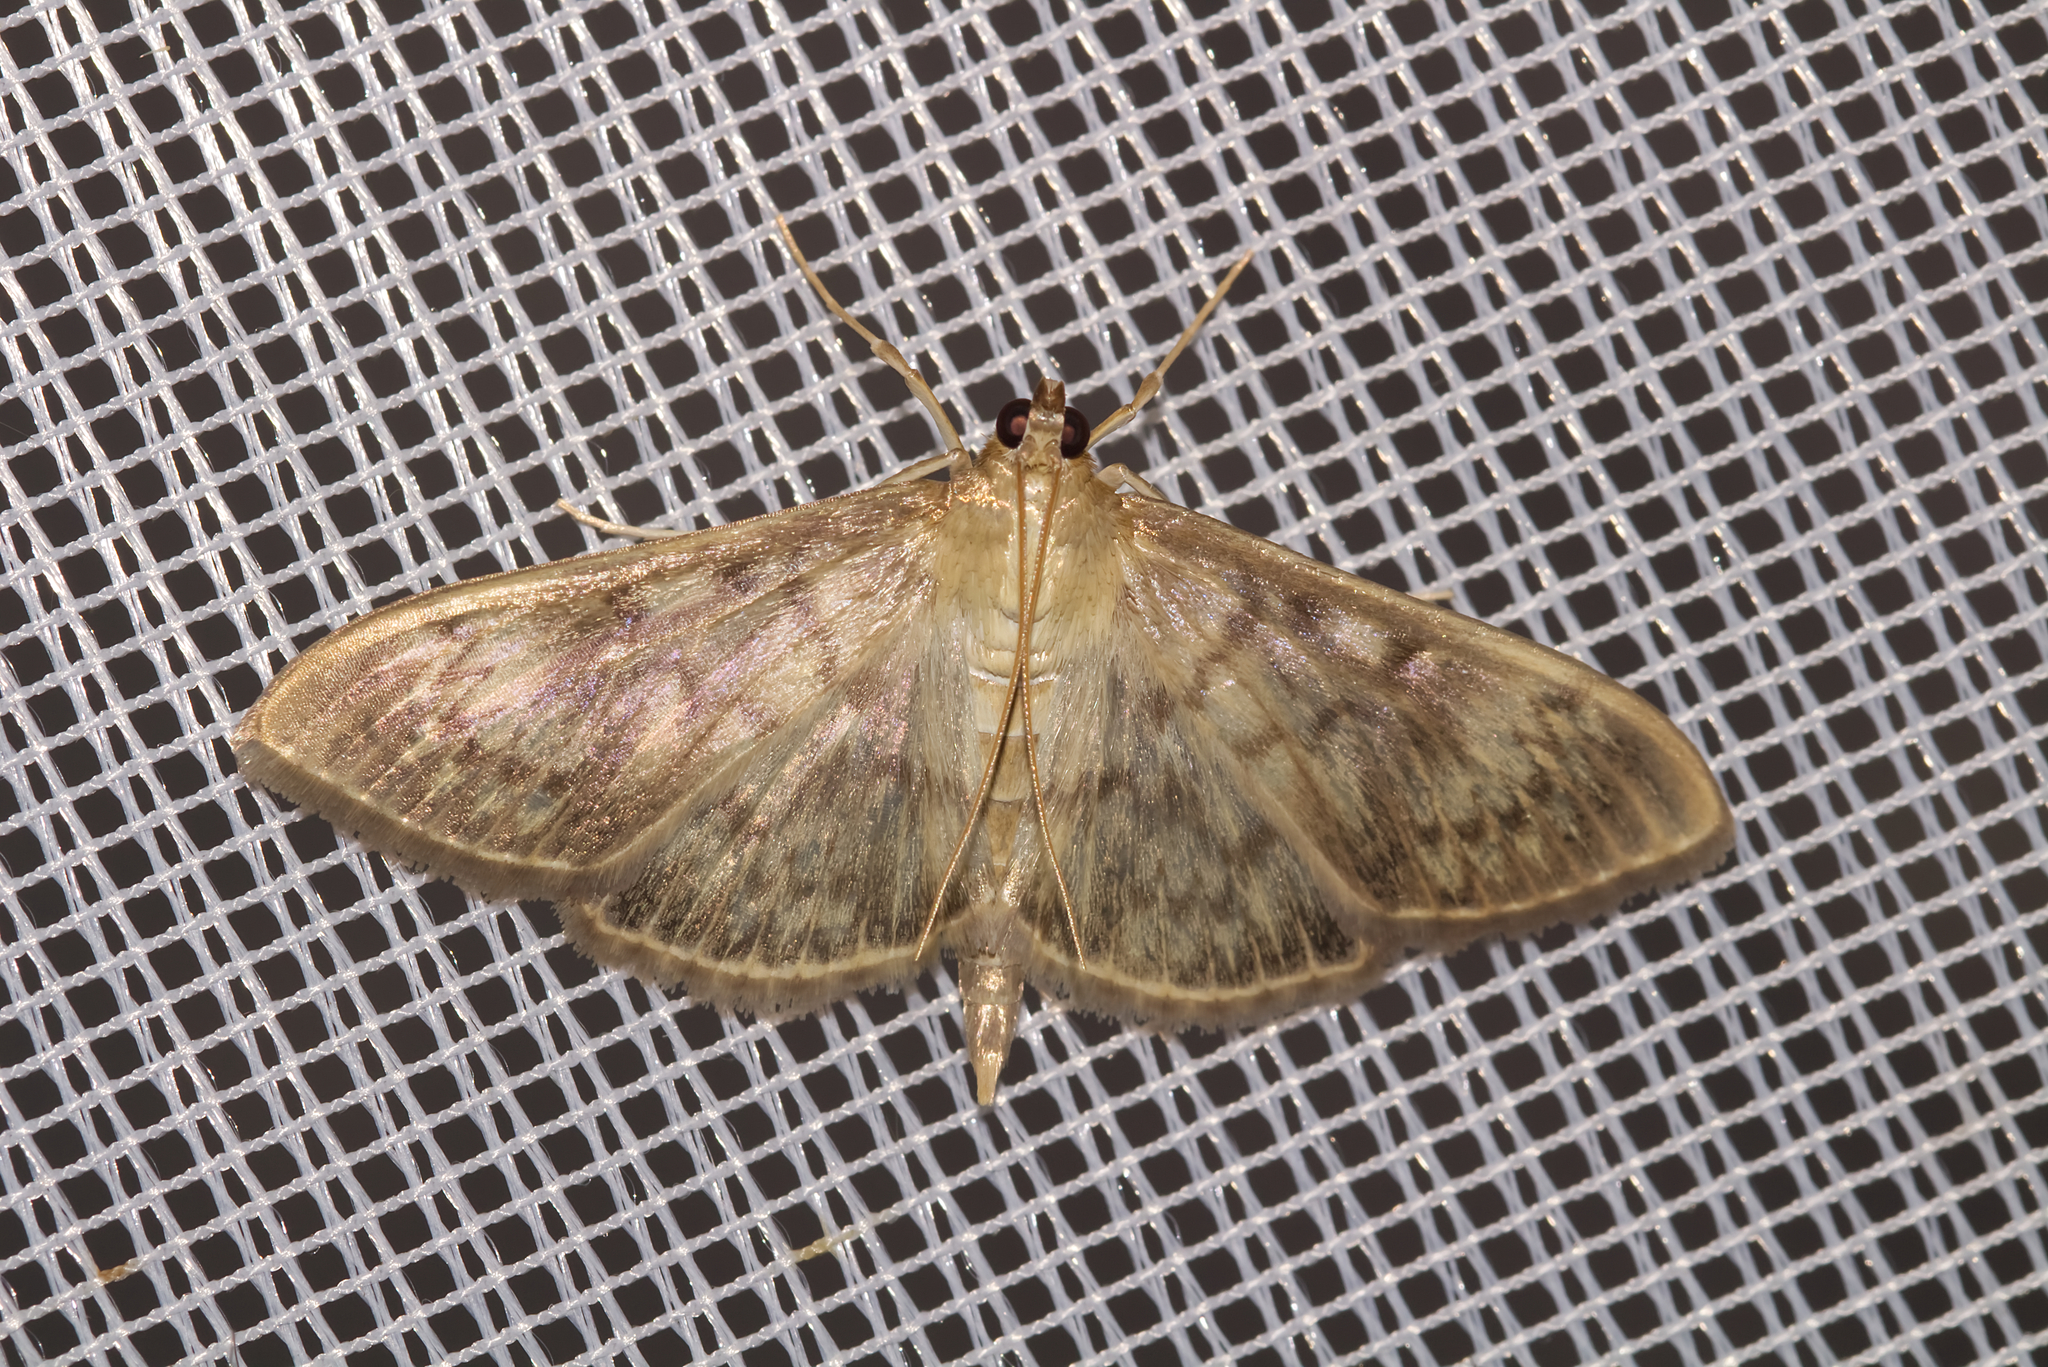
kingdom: Animalia
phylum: Arthropoda
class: Insecta
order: Lepidoptera
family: Crambidae
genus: Patania
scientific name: Patania ruralis
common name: Mother of pearl
